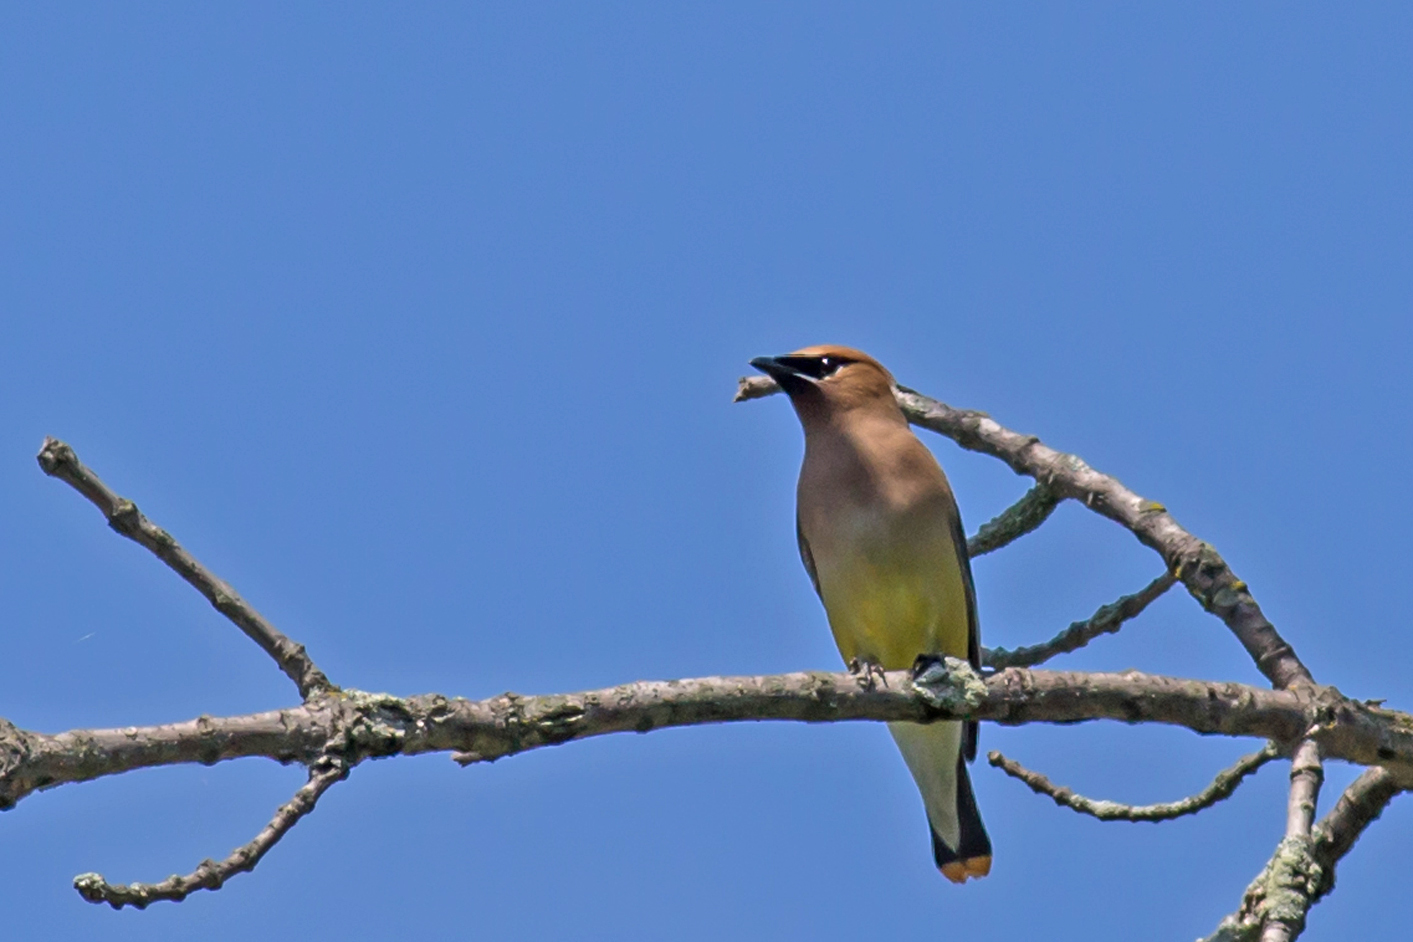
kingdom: Animalia
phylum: Chordata
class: Aves
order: Passeriformes
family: Bombycillidae
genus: Bombycilla
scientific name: Bombycilla cedrorum
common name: Cedar waxwing
